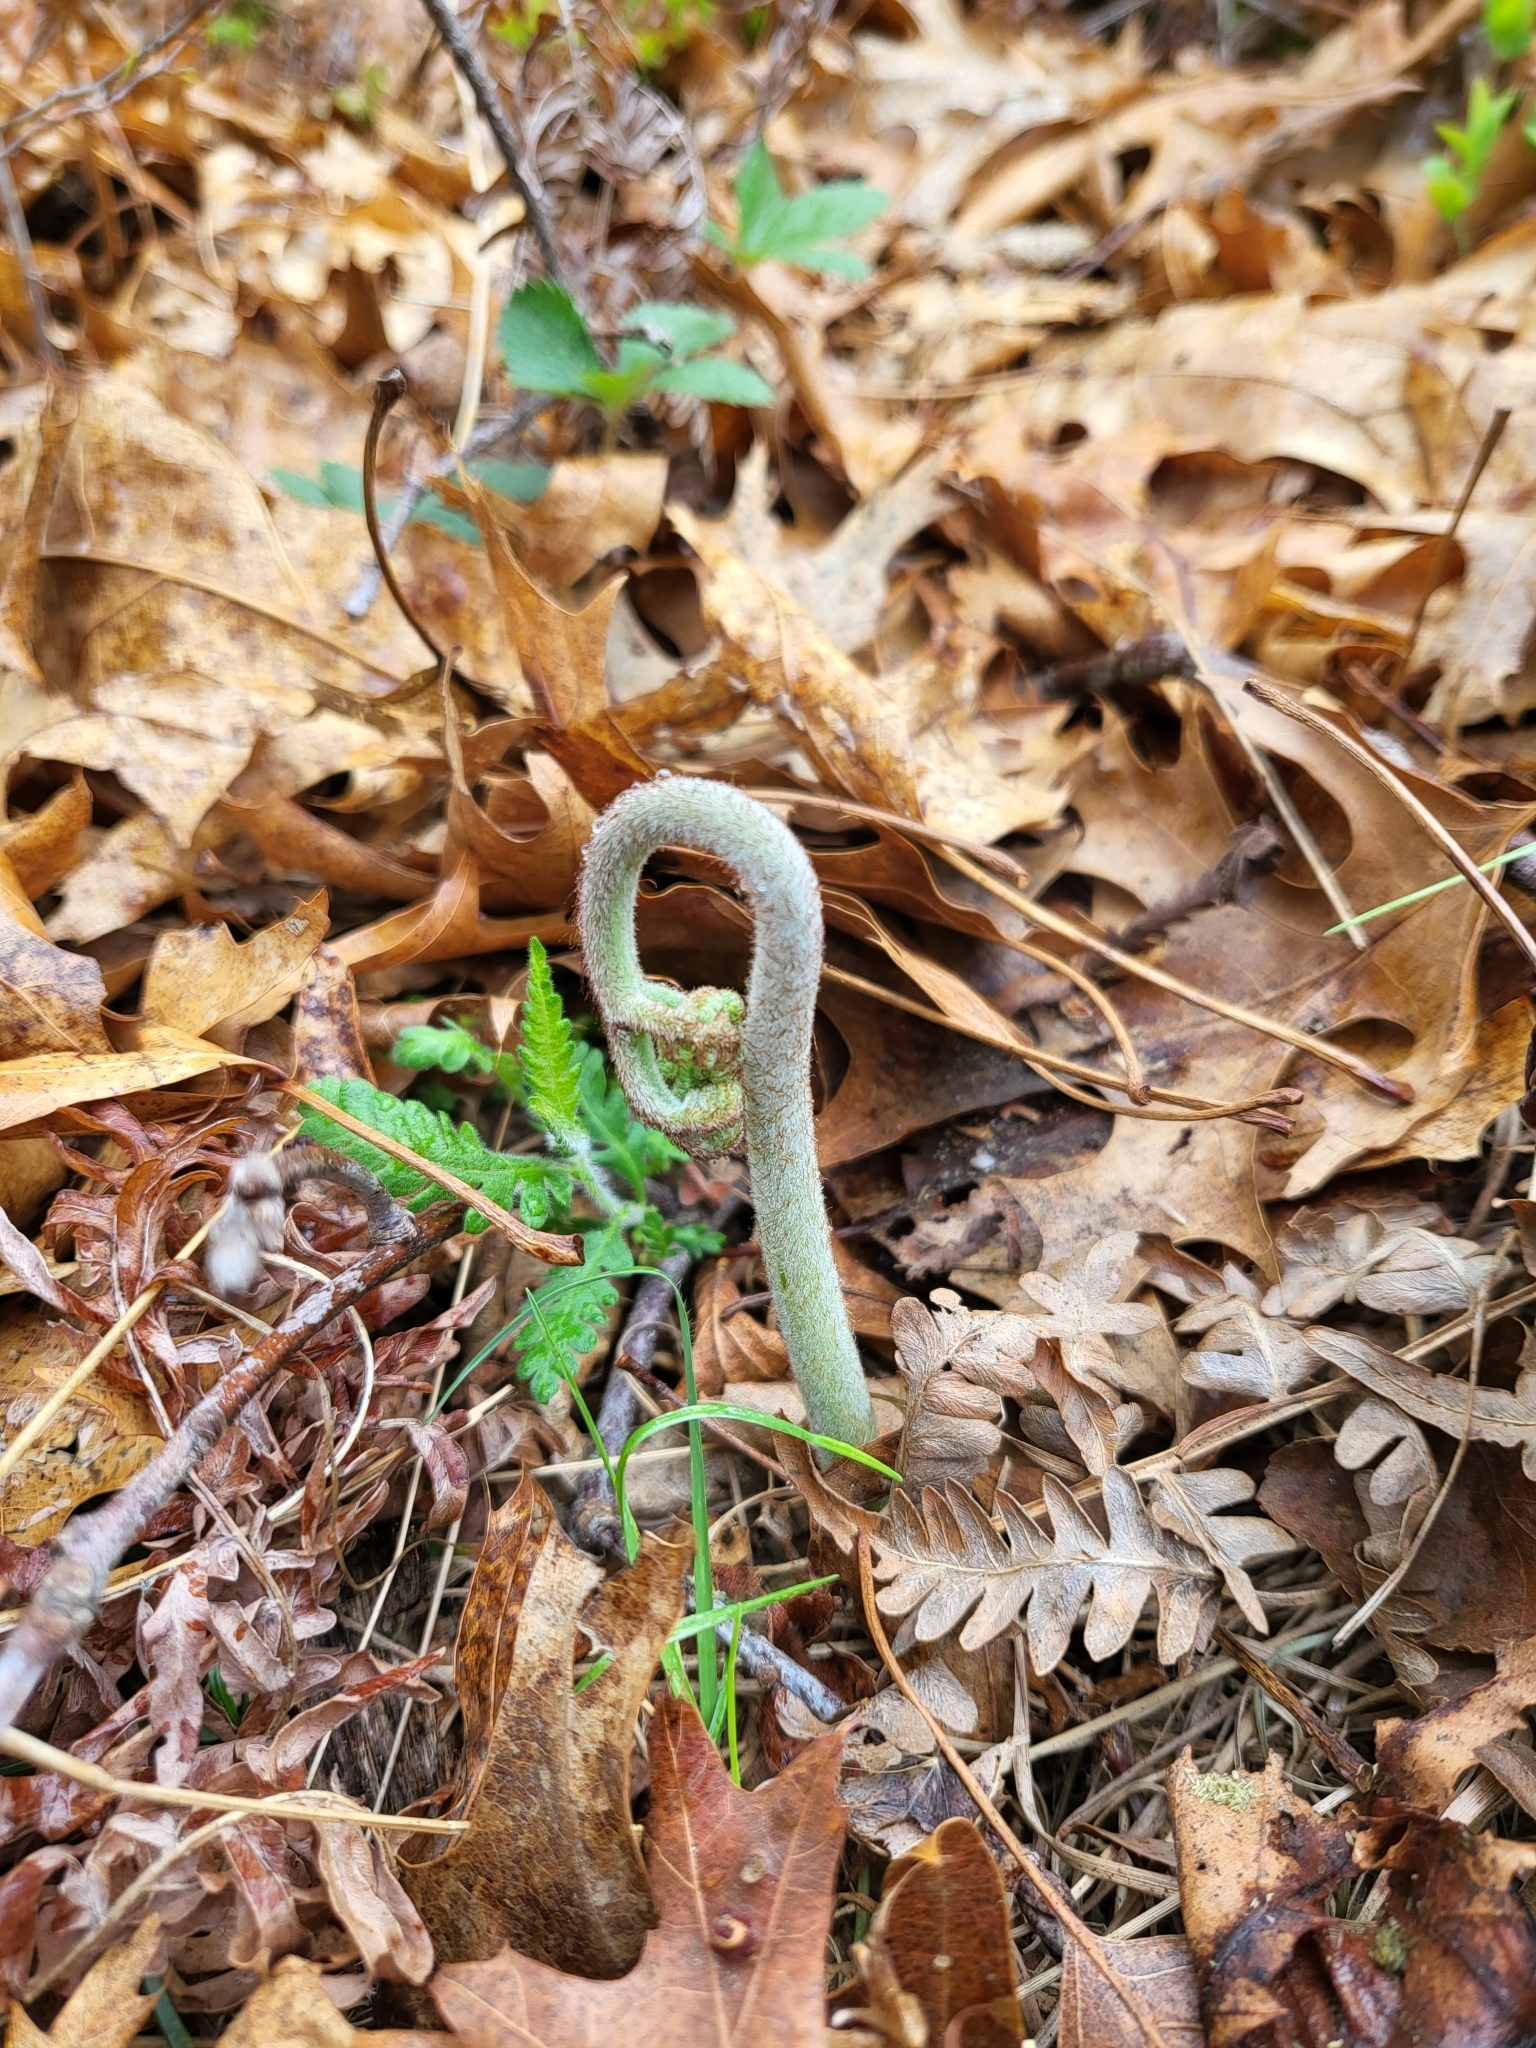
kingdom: Plantae
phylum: Tracheophyta
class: Polypodiopsida
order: Polypodiales
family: Dennstaedtiaceae
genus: Pteridium
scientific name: Pteridium aquilinum
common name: Bracken
